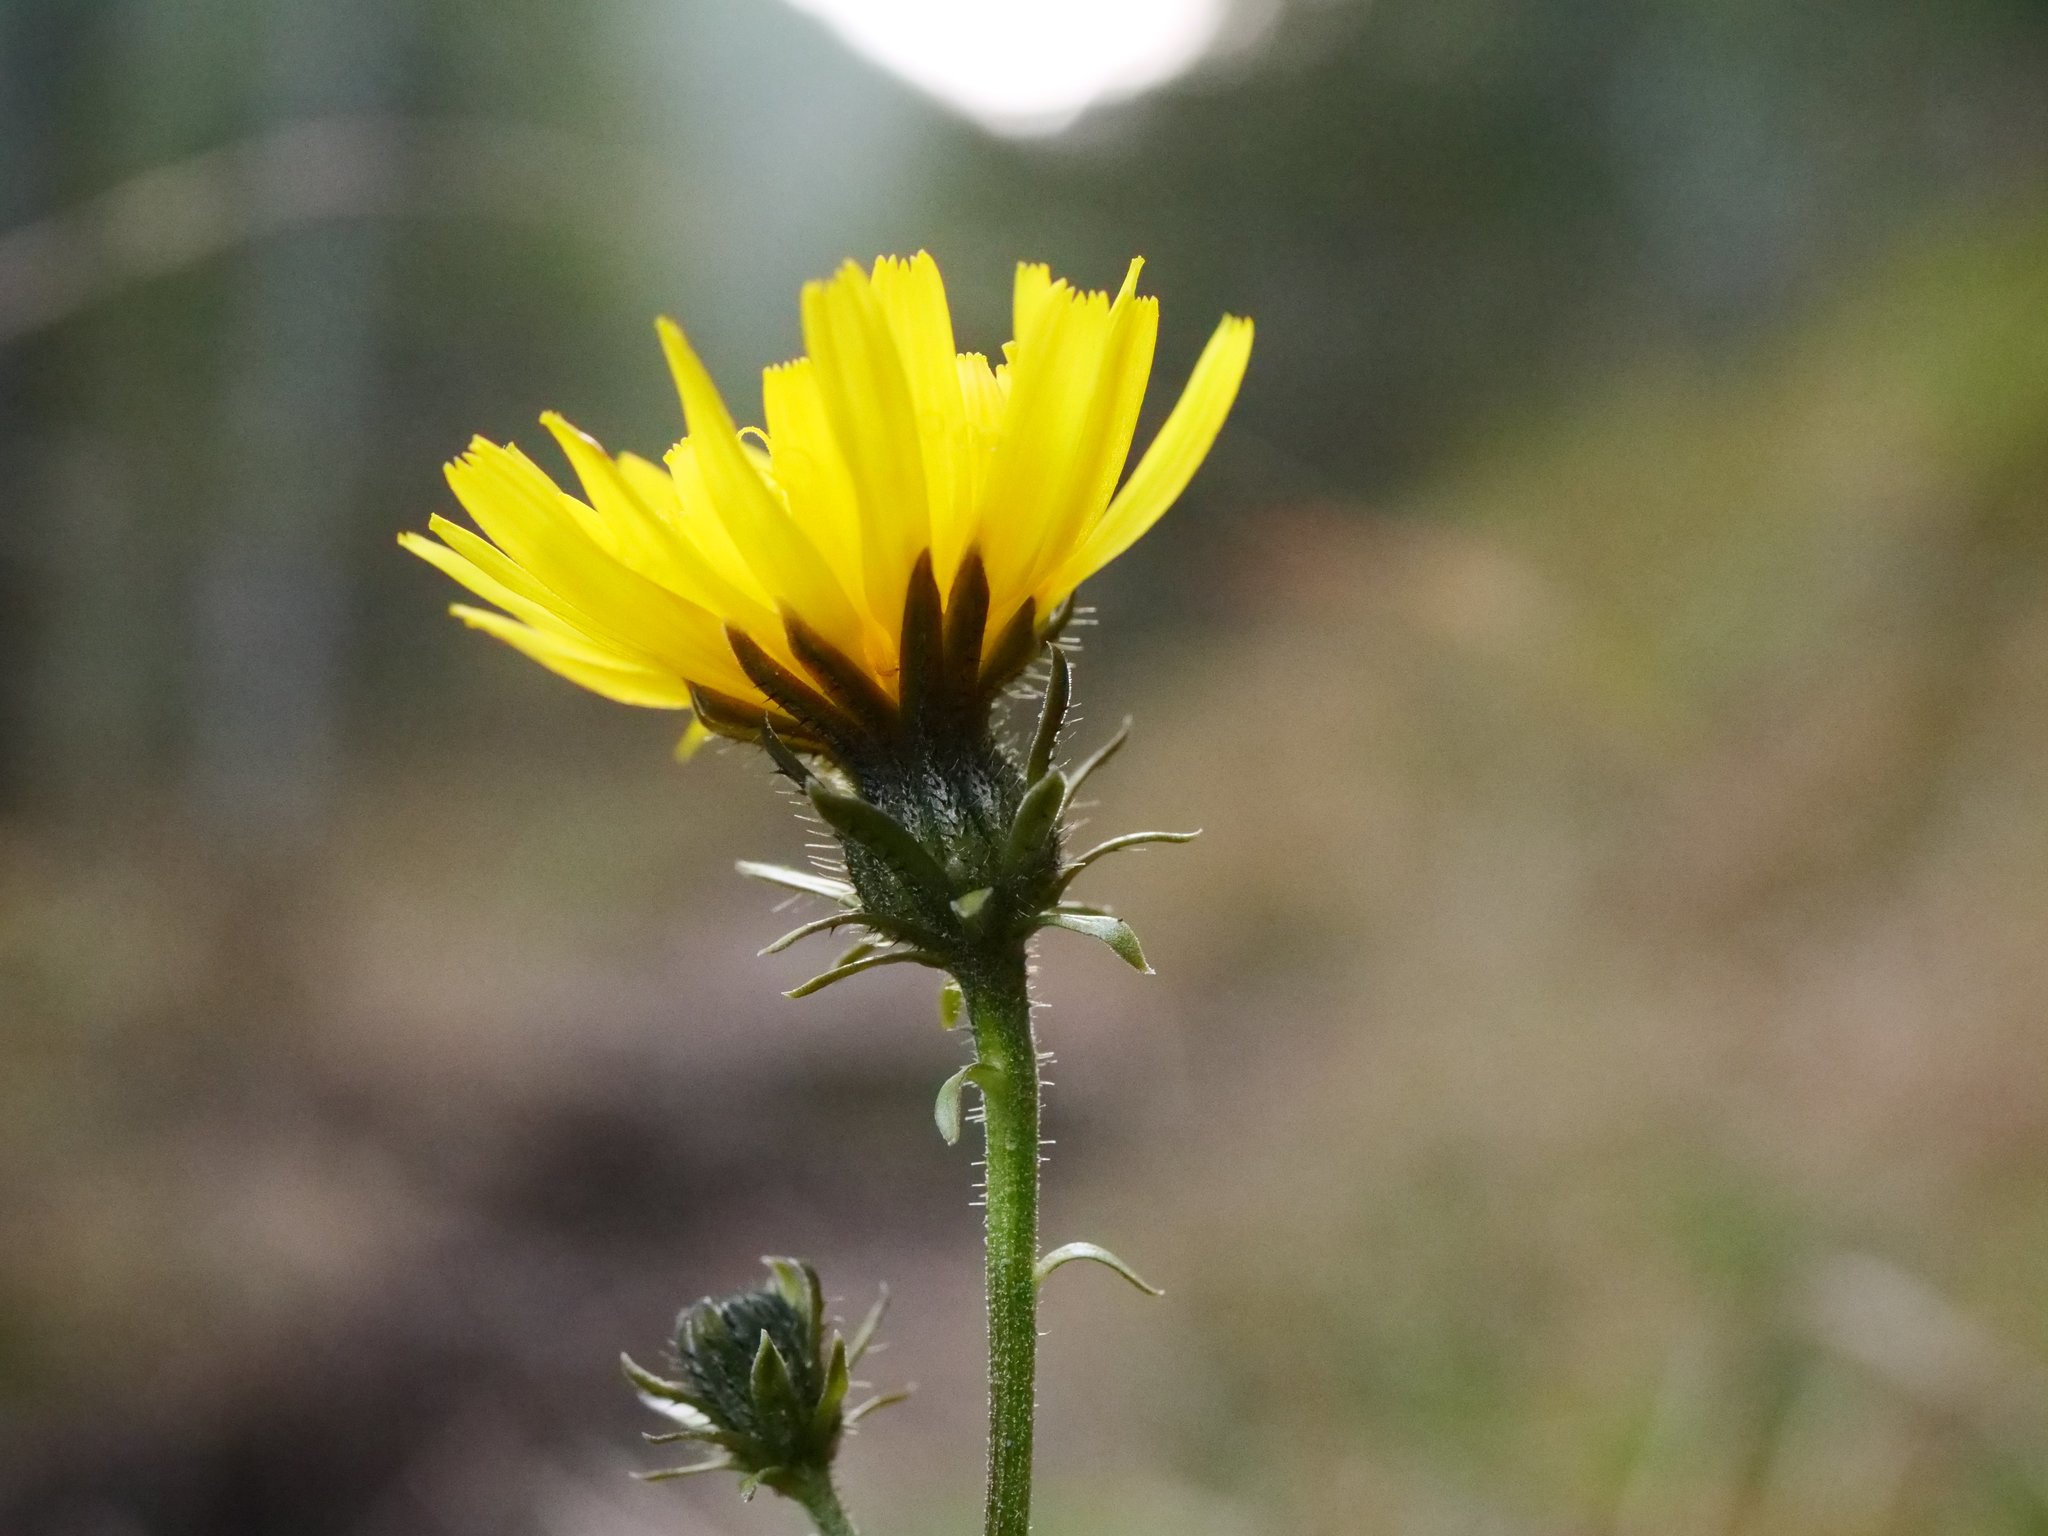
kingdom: Plantae
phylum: Tracheophyta
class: Magnoliopsida
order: Asterales
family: Asteraceae
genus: Picris
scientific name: Picris hieracioides
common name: Hawkweed oxtongue
